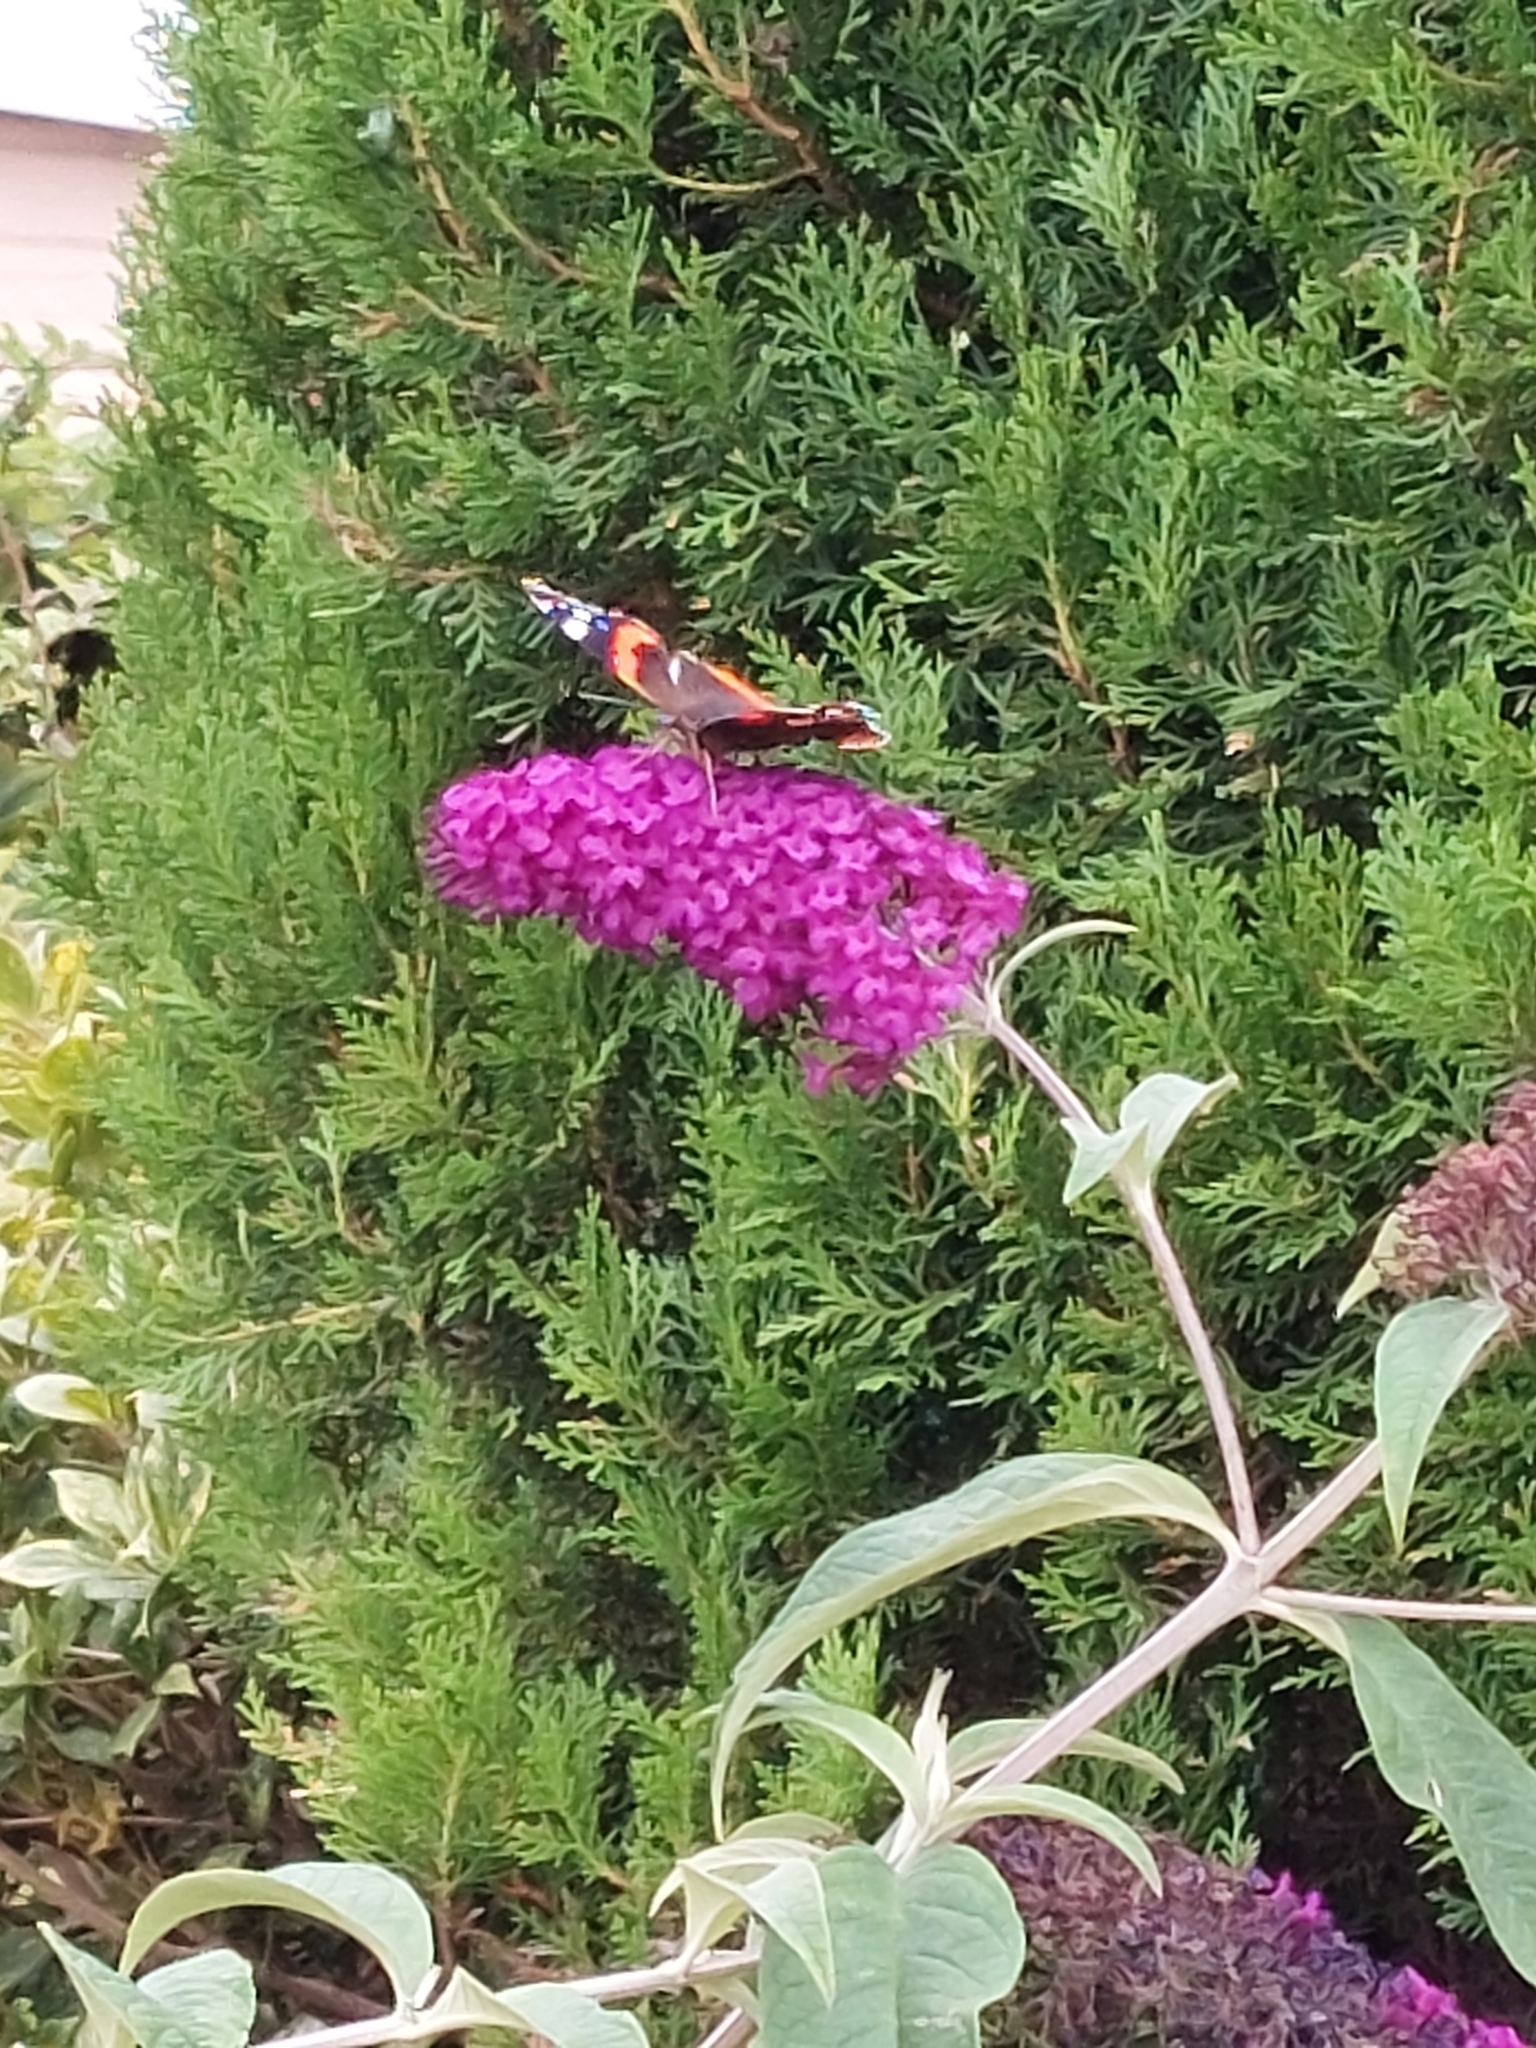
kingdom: Animalia
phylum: Arthropoda
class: Insecta
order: Lepidoptera
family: Nymphalidae
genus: Vanessa
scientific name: Vanessa atalanta
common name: Red admiral
